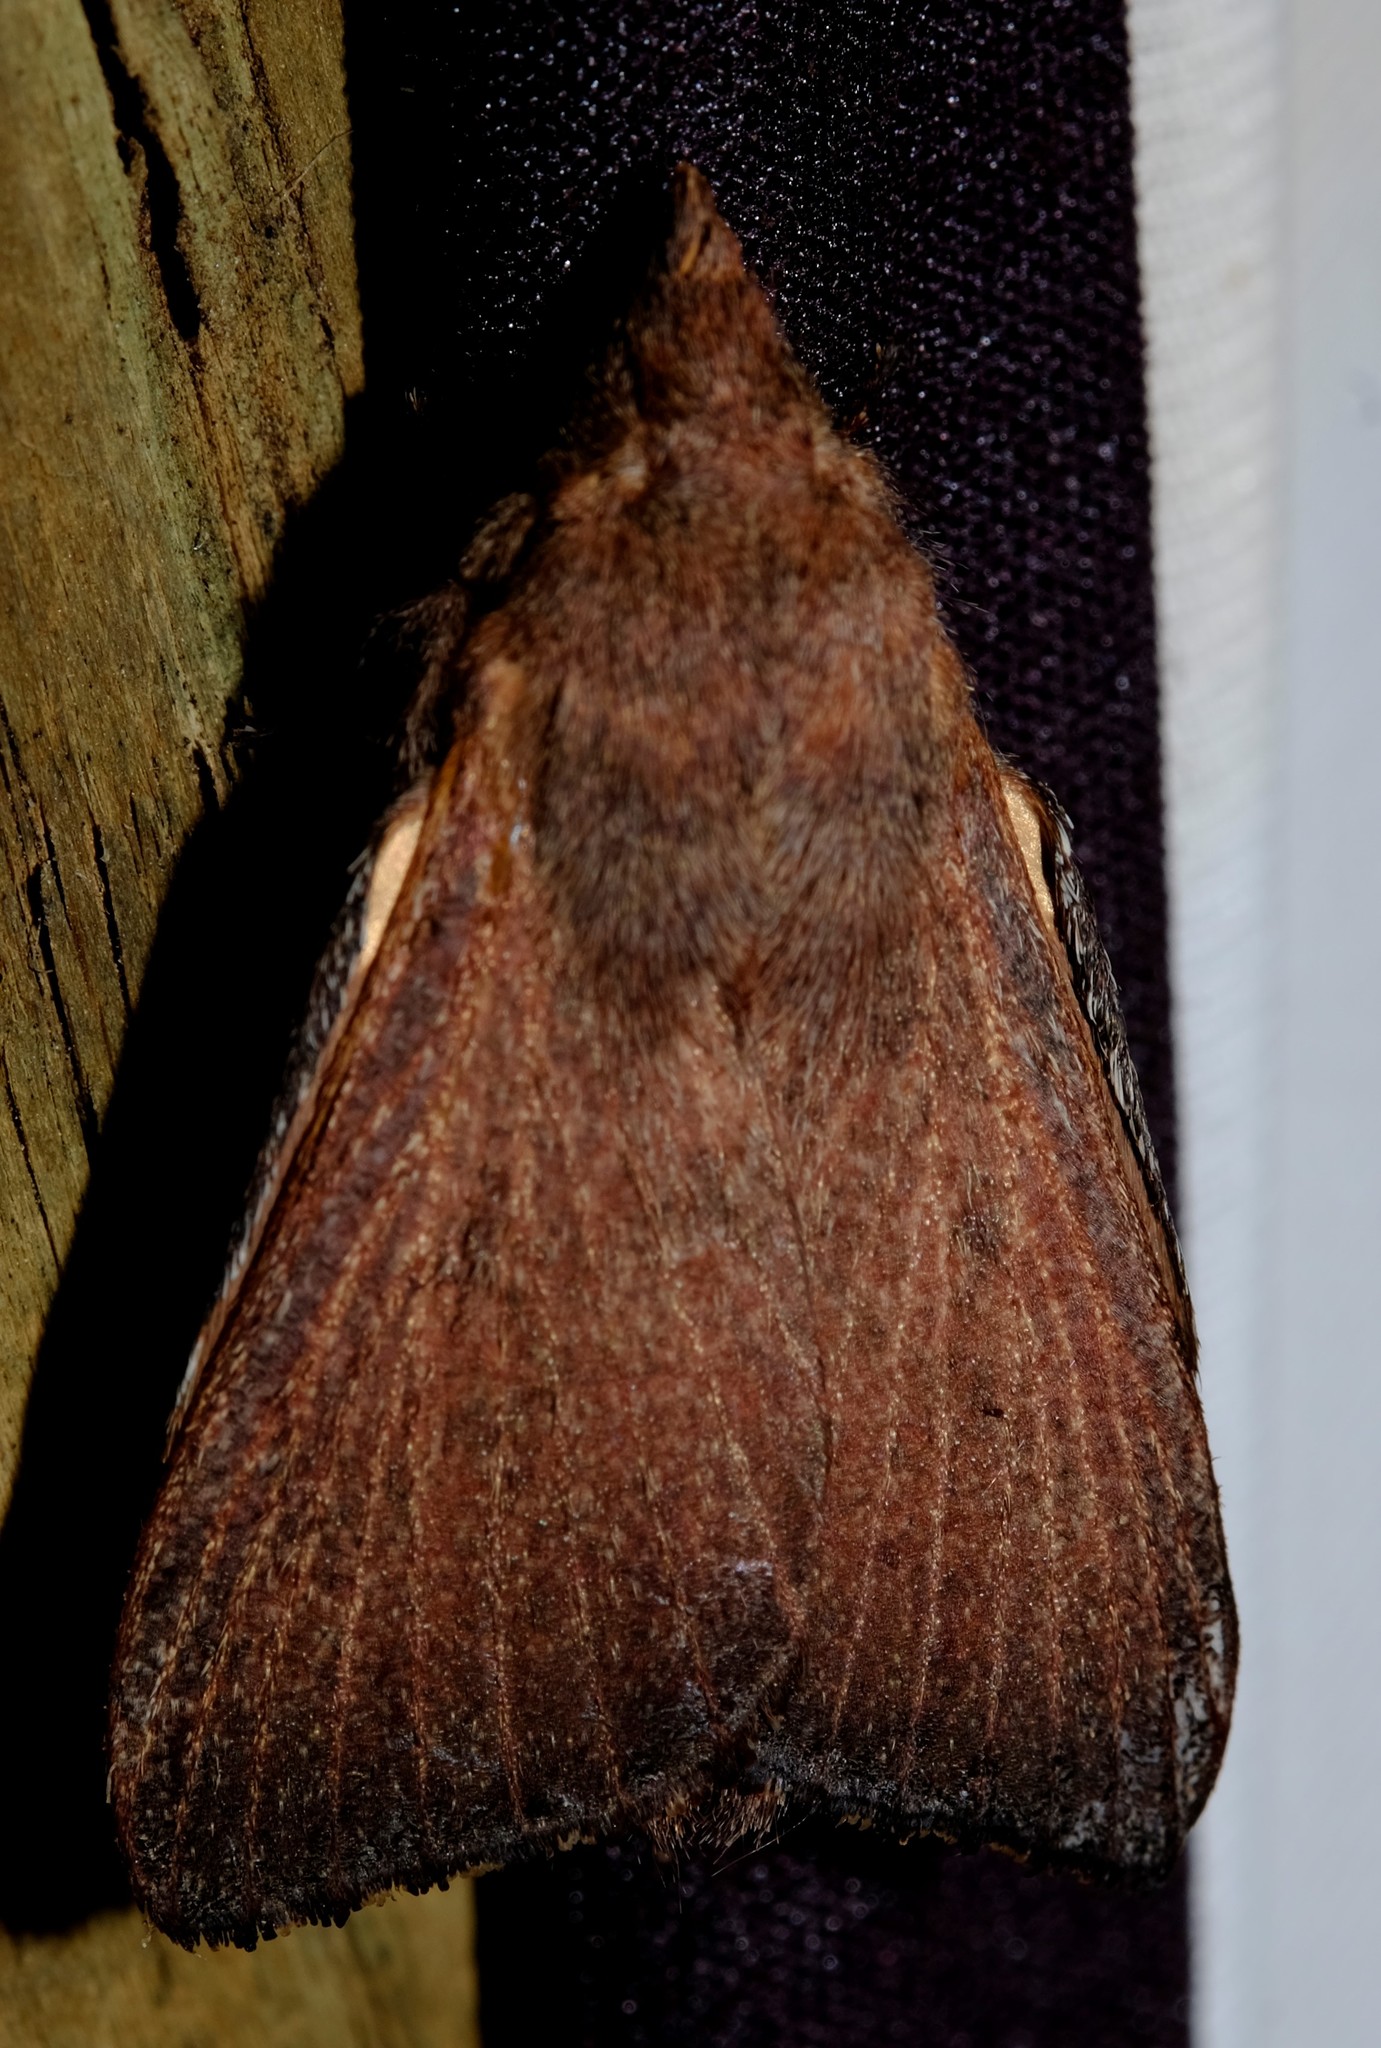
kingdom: Animalia
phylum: Arthropoda
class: Insecta
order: Lepidoptera
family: Lasiocampidae
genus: Pararguda
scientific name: Pararguda rufescens
